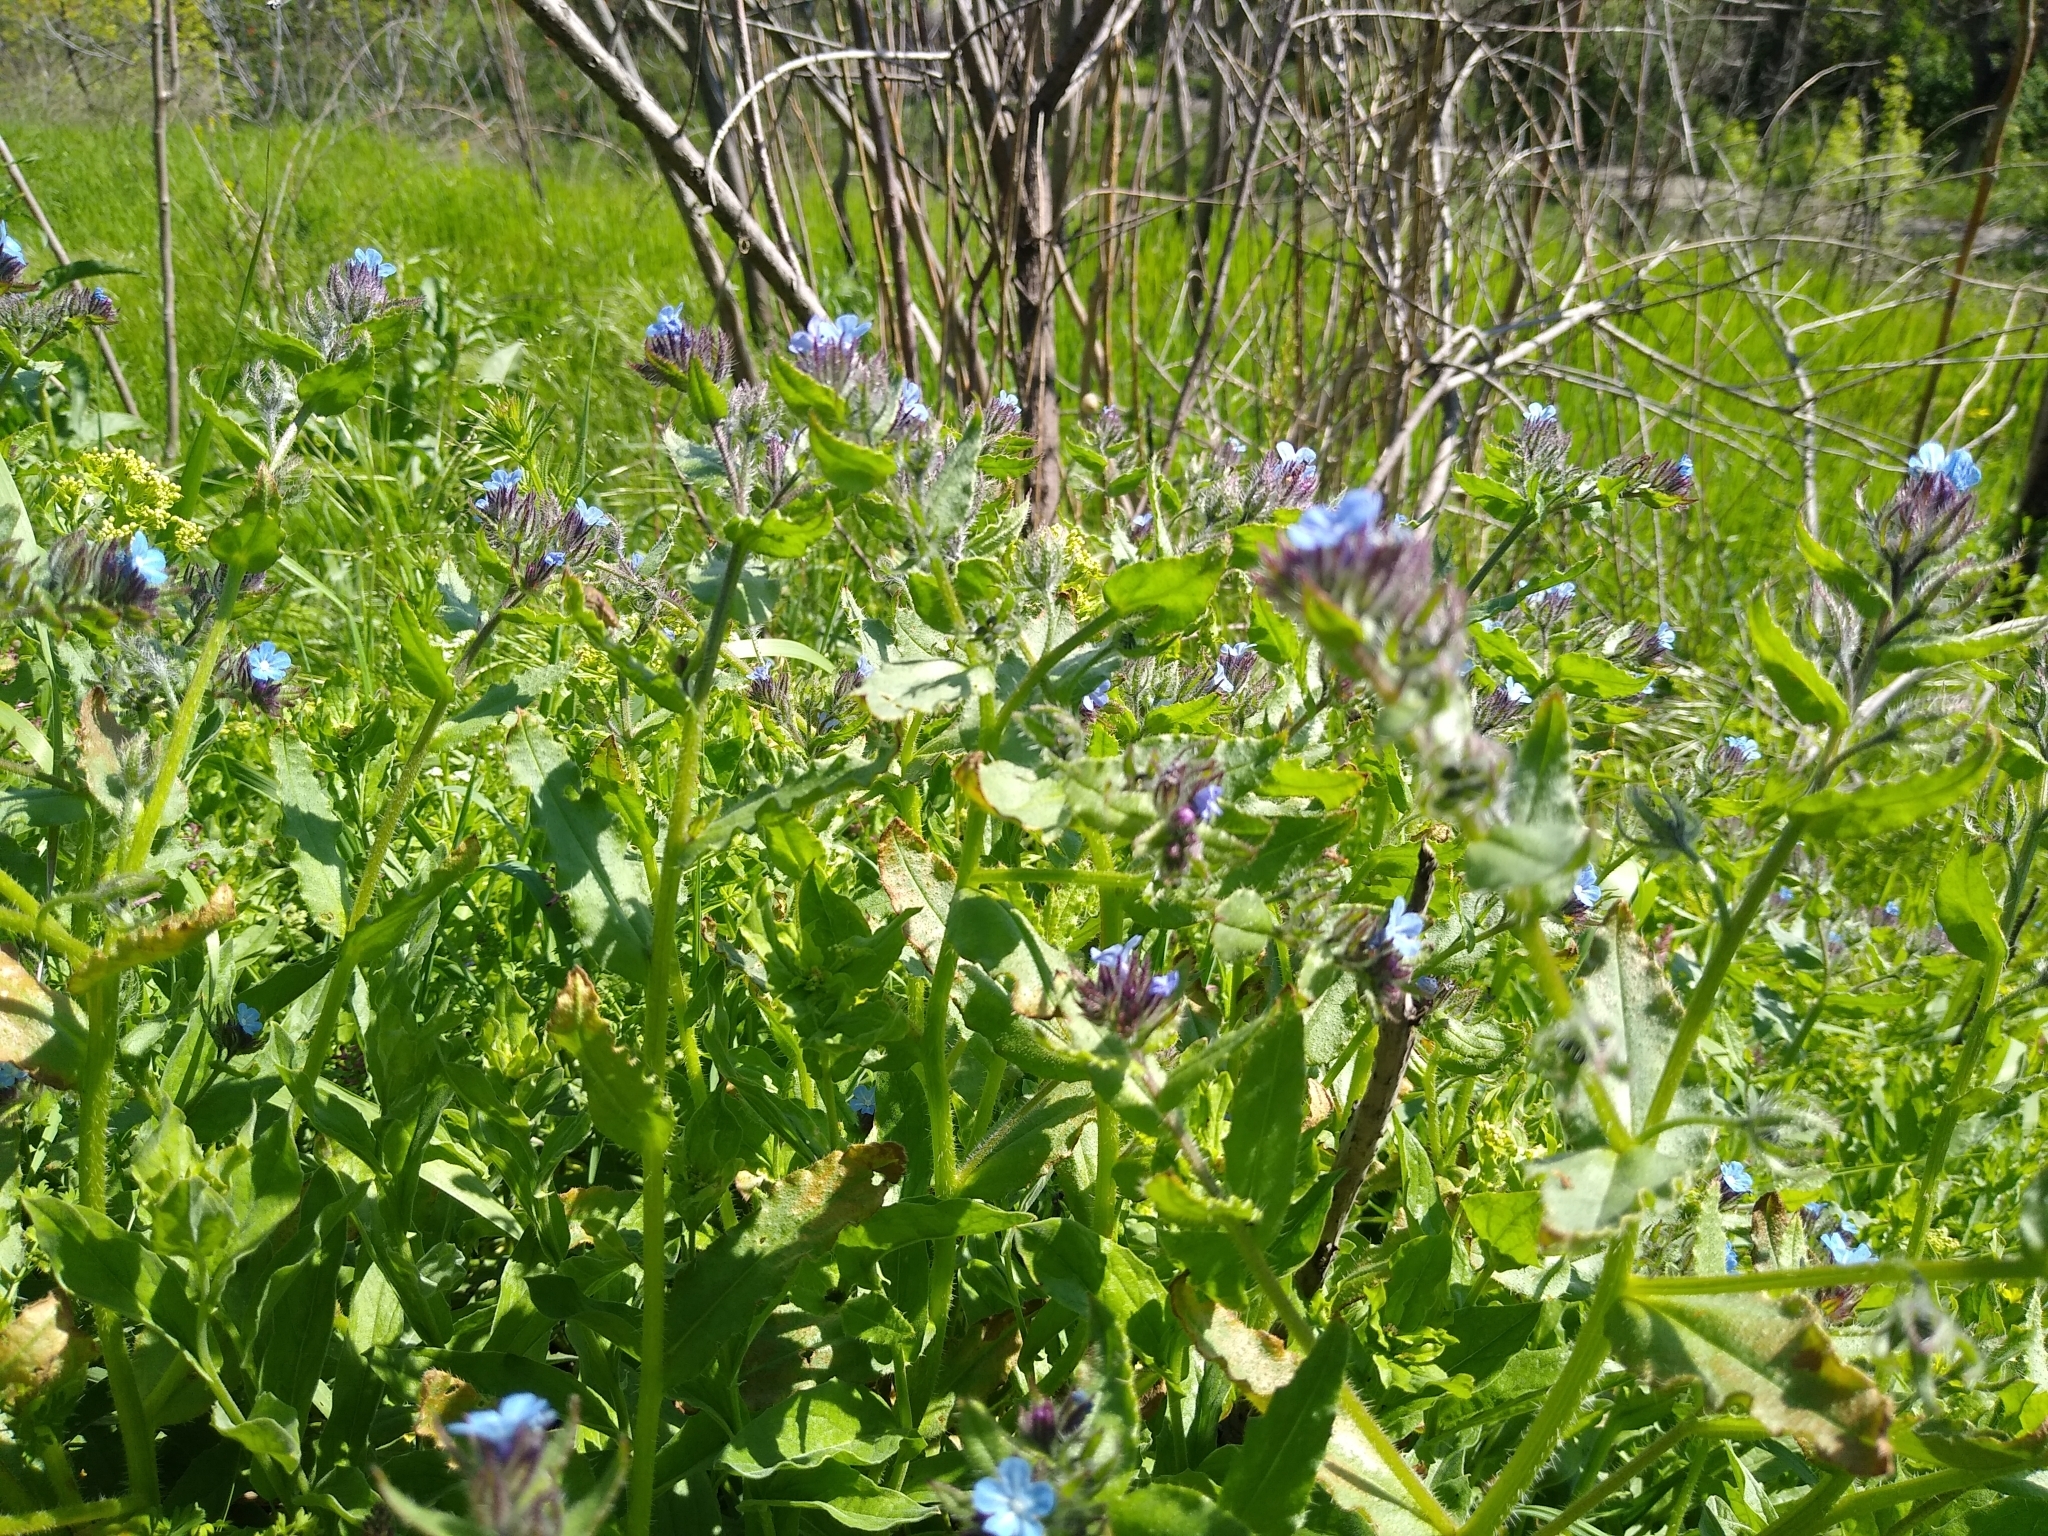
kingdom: Plantae
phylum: Tracheophyta
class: Magnoliopsida
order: Boraginales
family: Boraginaceae
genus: Lycopsis
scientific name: Lycopsis arvensis
